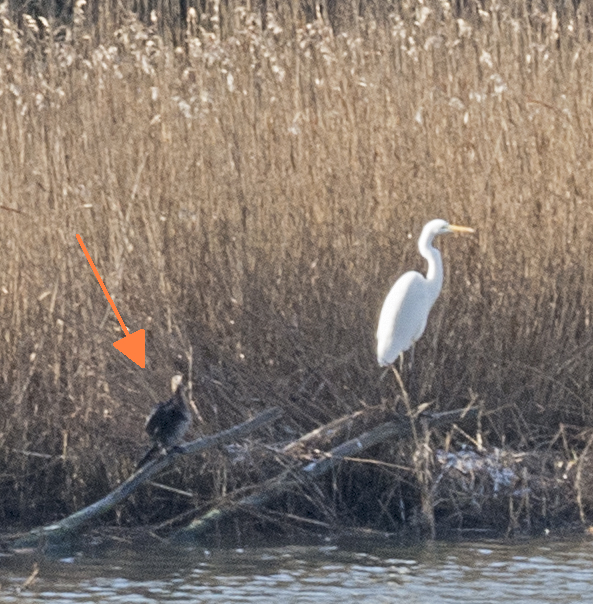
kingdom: Animalia
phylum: Chordata
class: Aves
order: Suliformes
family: Phalacrocoracidae
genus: Microcarbo
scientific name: Microcarbo pygmaeus
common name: Pygmy cormorant
